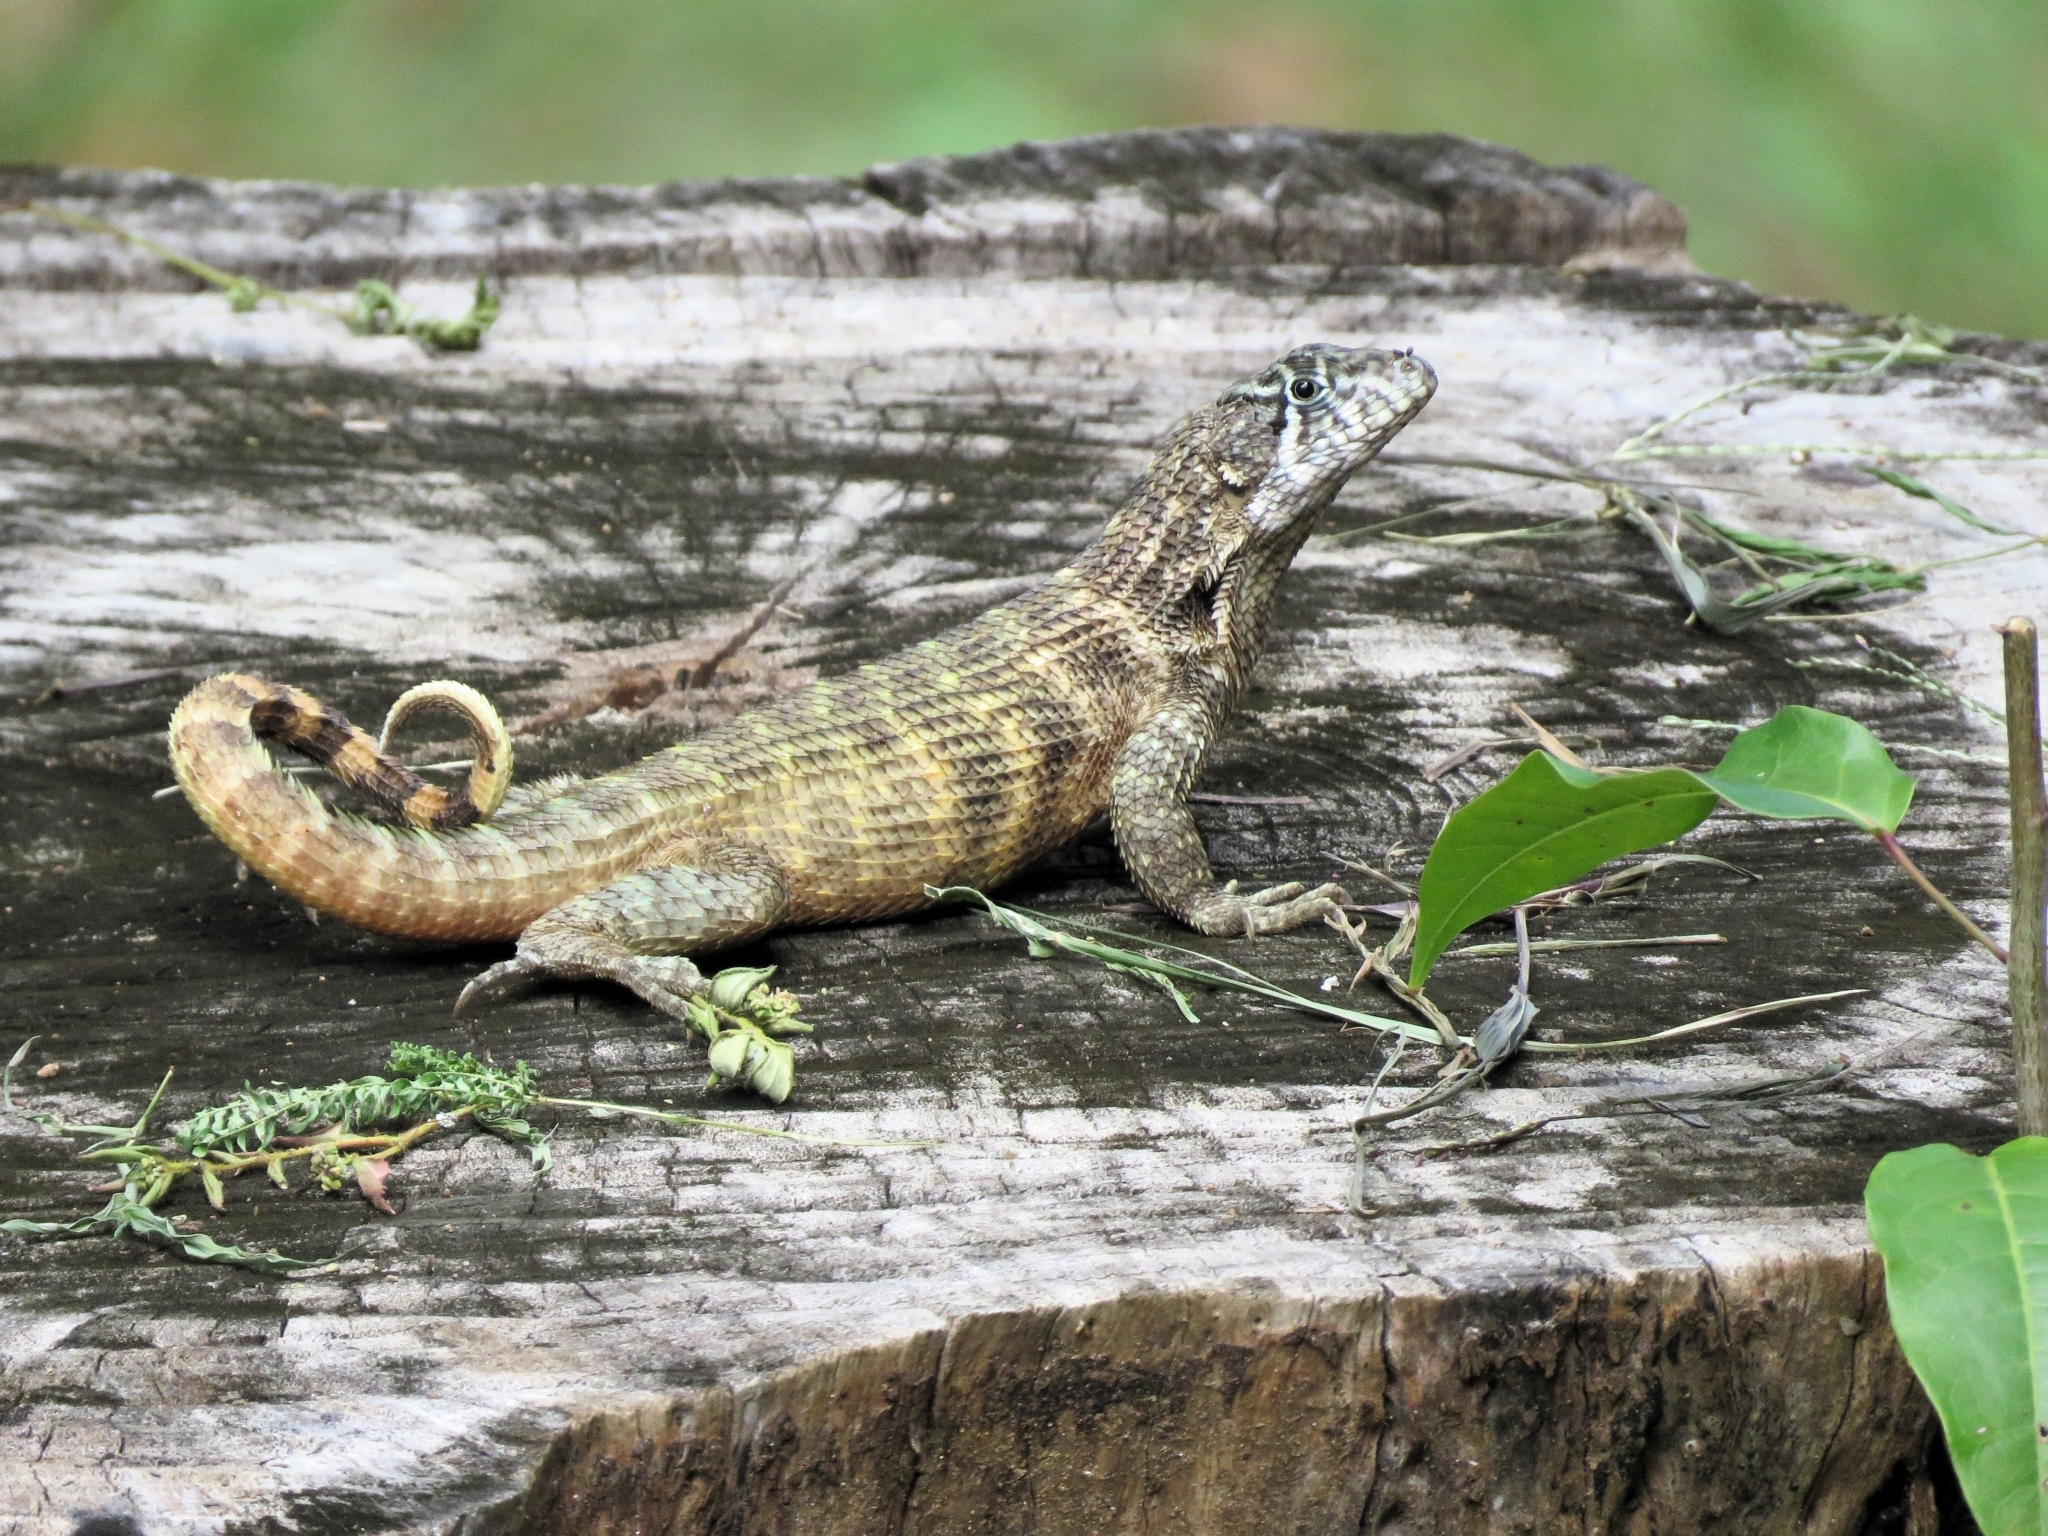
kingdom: Animalia
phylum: Chordata
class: Squamata
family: Leiocephalidae
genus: Leiocephalus
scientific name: Leiocephalus carinatus
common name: Northern curly-tailed lizard
